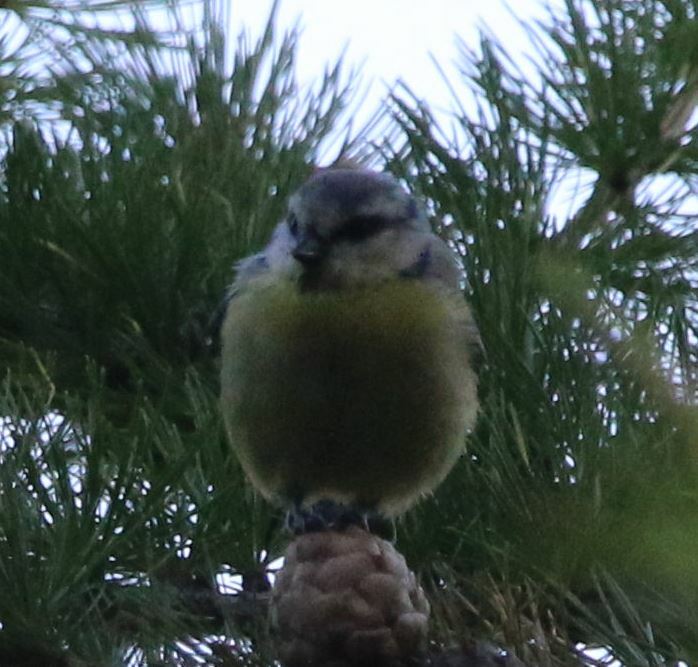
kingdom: Animalia
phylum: Chordata
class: Aves
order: Passeriformes
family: Paridae
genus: Cyanistes
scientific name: Cyanistes caeruleus
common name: Eurasian blue tit
